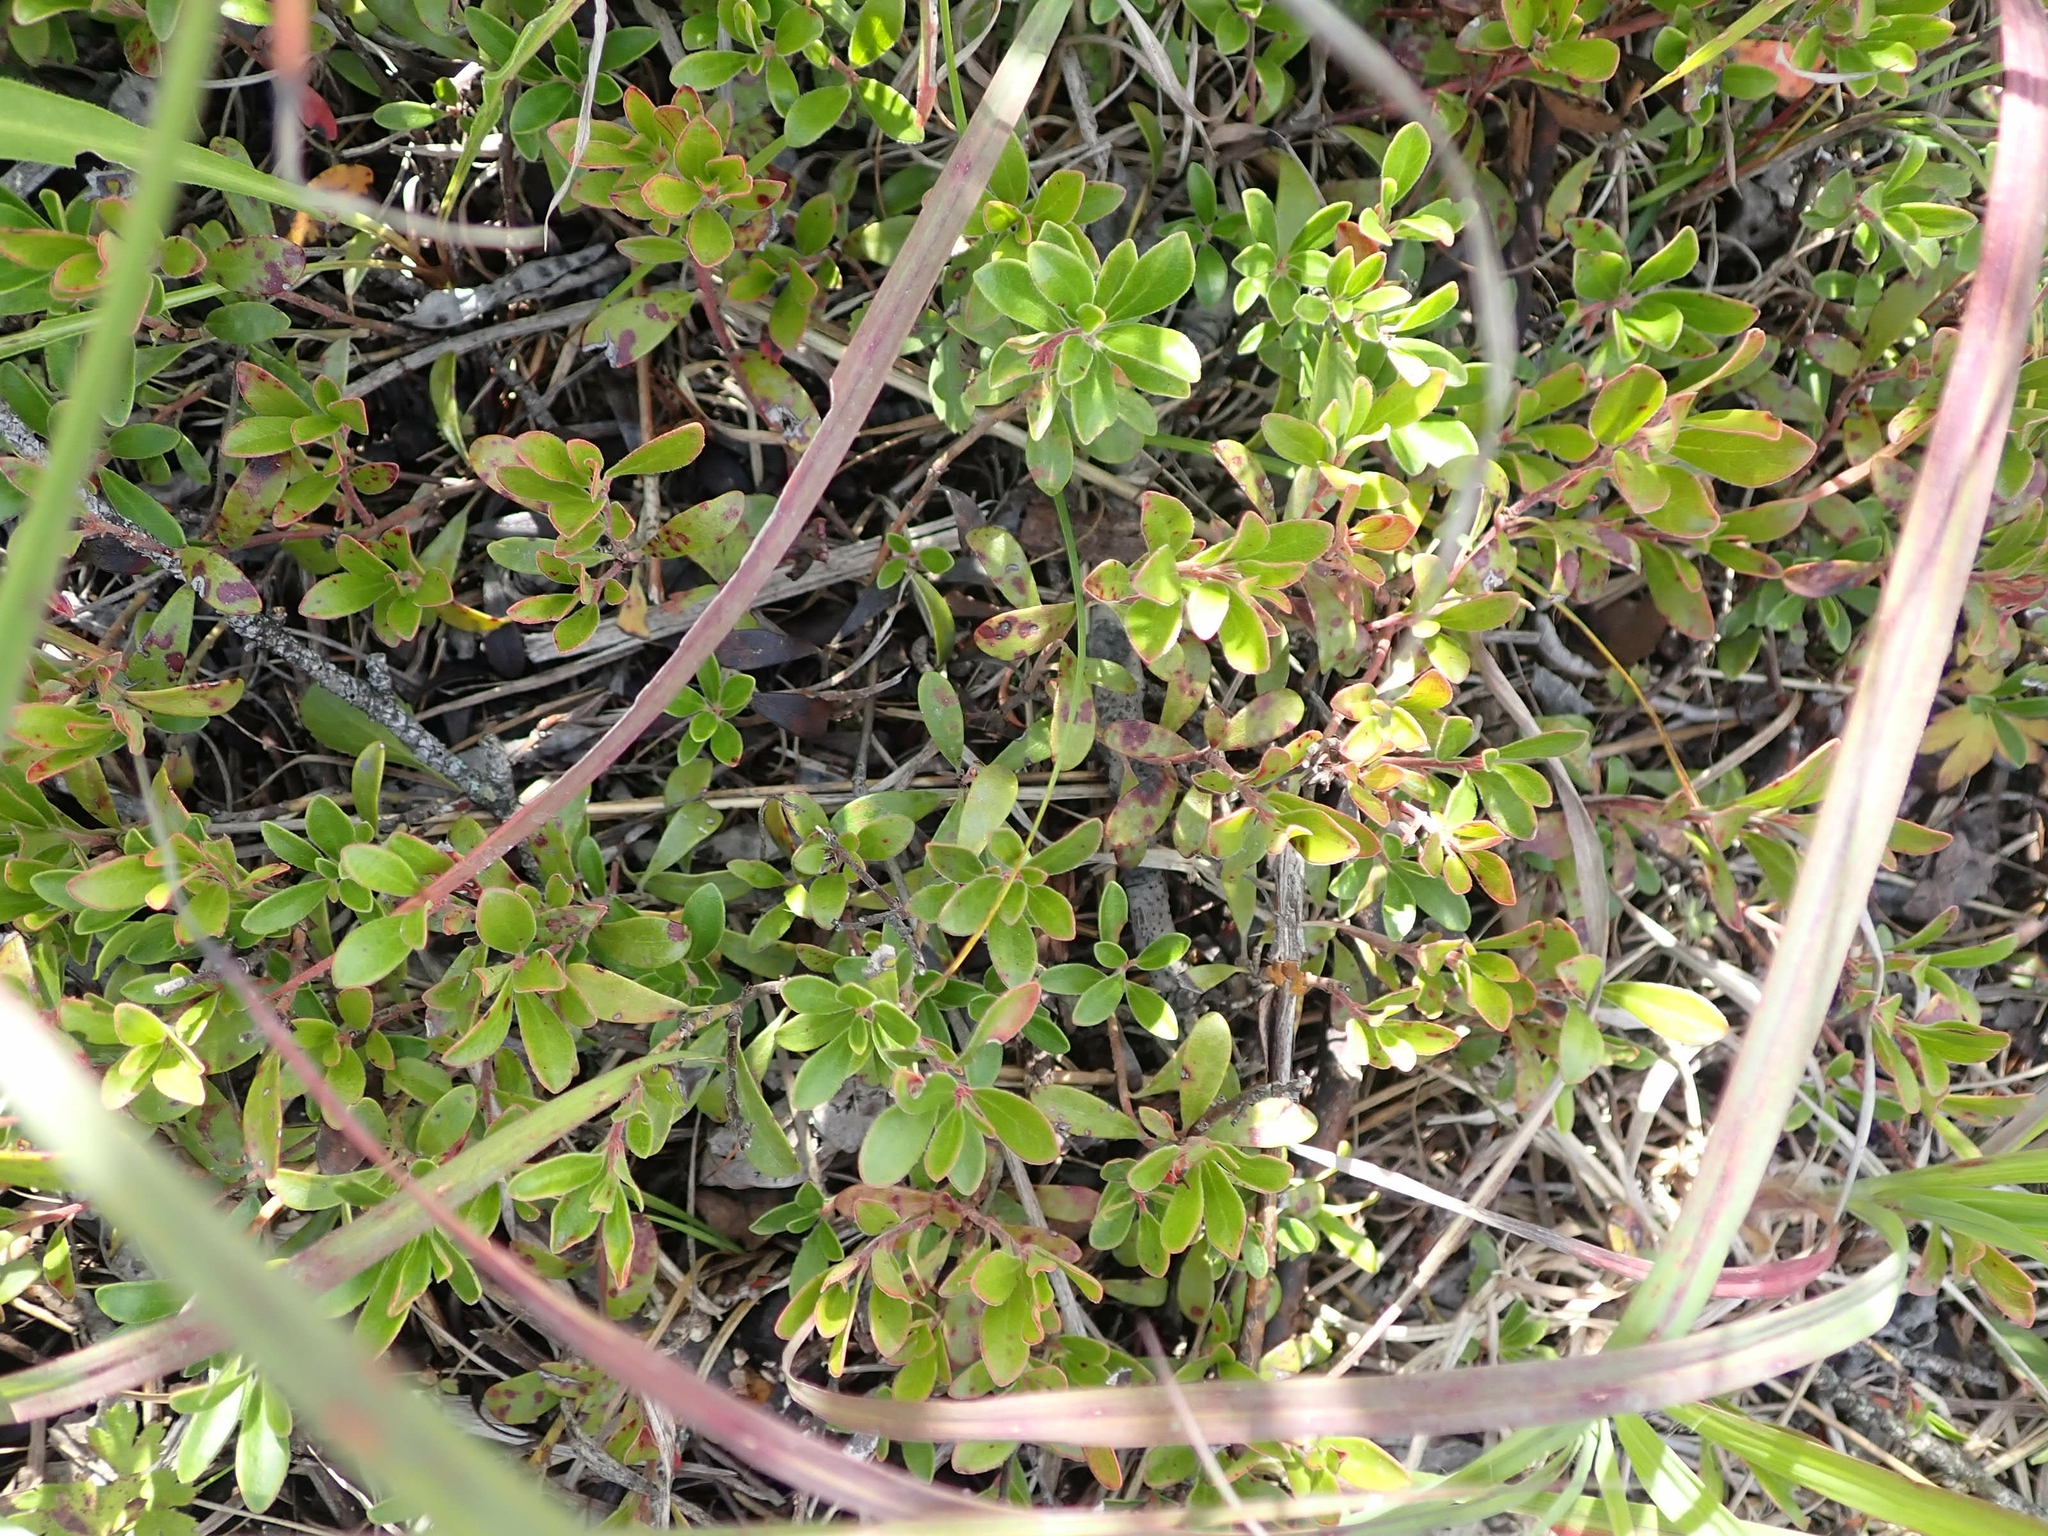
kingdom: Plantae
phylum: Tracheophyta
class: Magnoliopsida
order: Ericales
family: Ericaceae
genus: Arctostaphylos
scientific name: Arctostaphylos uva-ursi
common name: Bearberry
